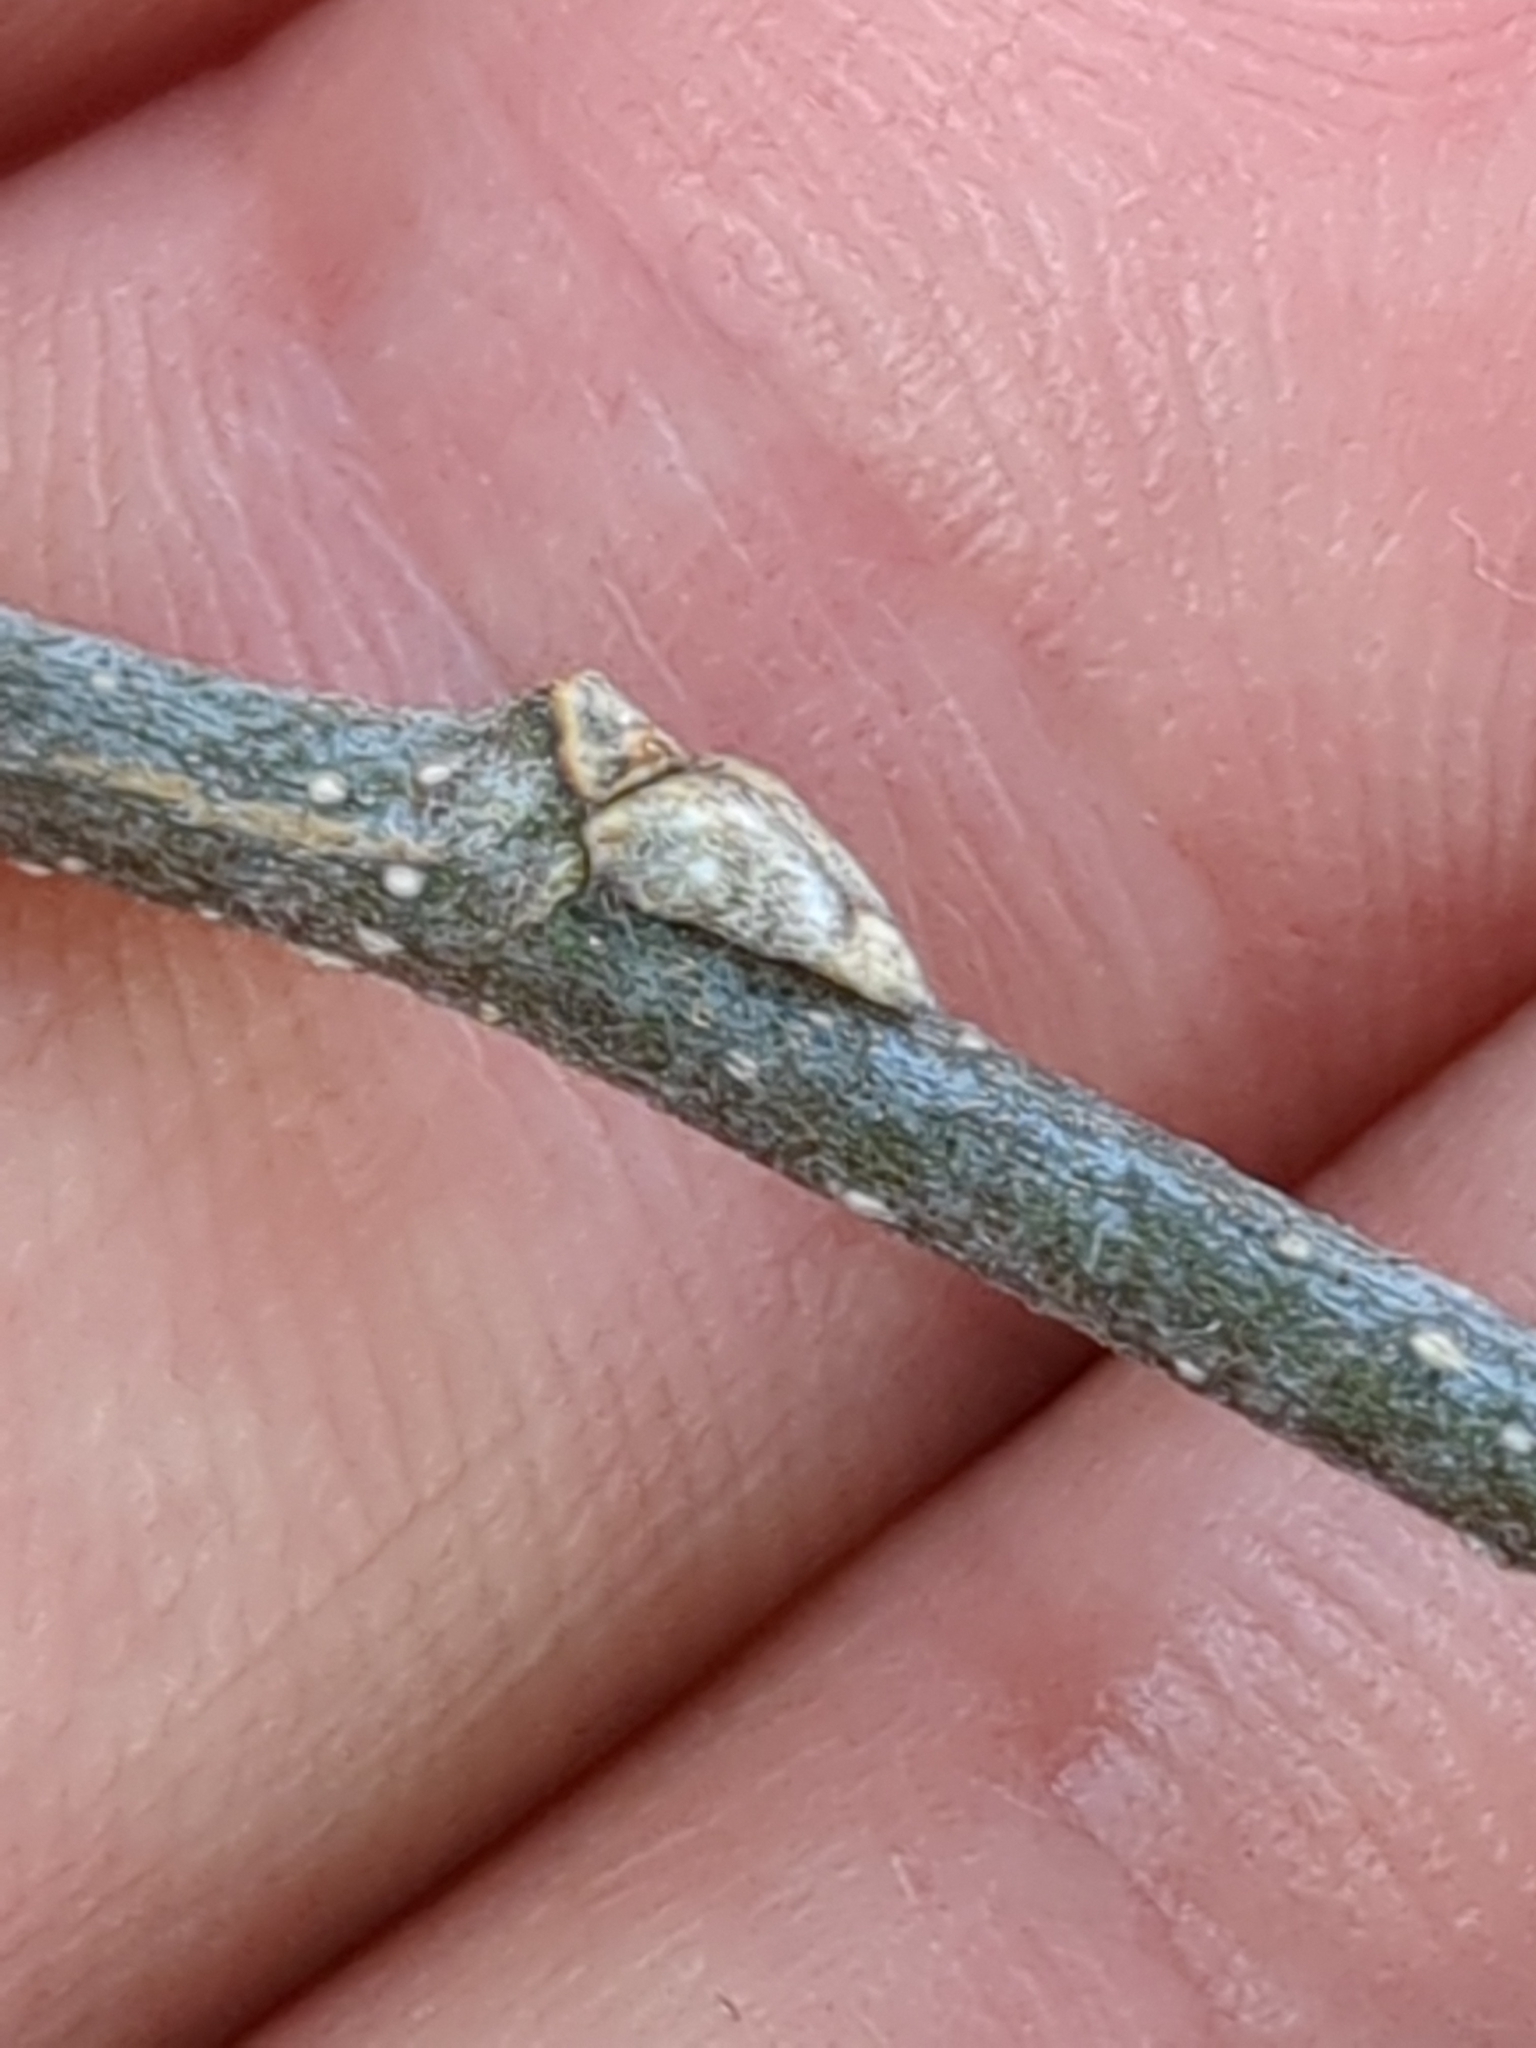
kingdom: Plantae
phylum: Tracheophyta
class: Magnoliopsida
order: Rosales
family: Cannabaceae
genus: Celtis
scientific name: Celtis occidentalis
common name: Common hackberry
